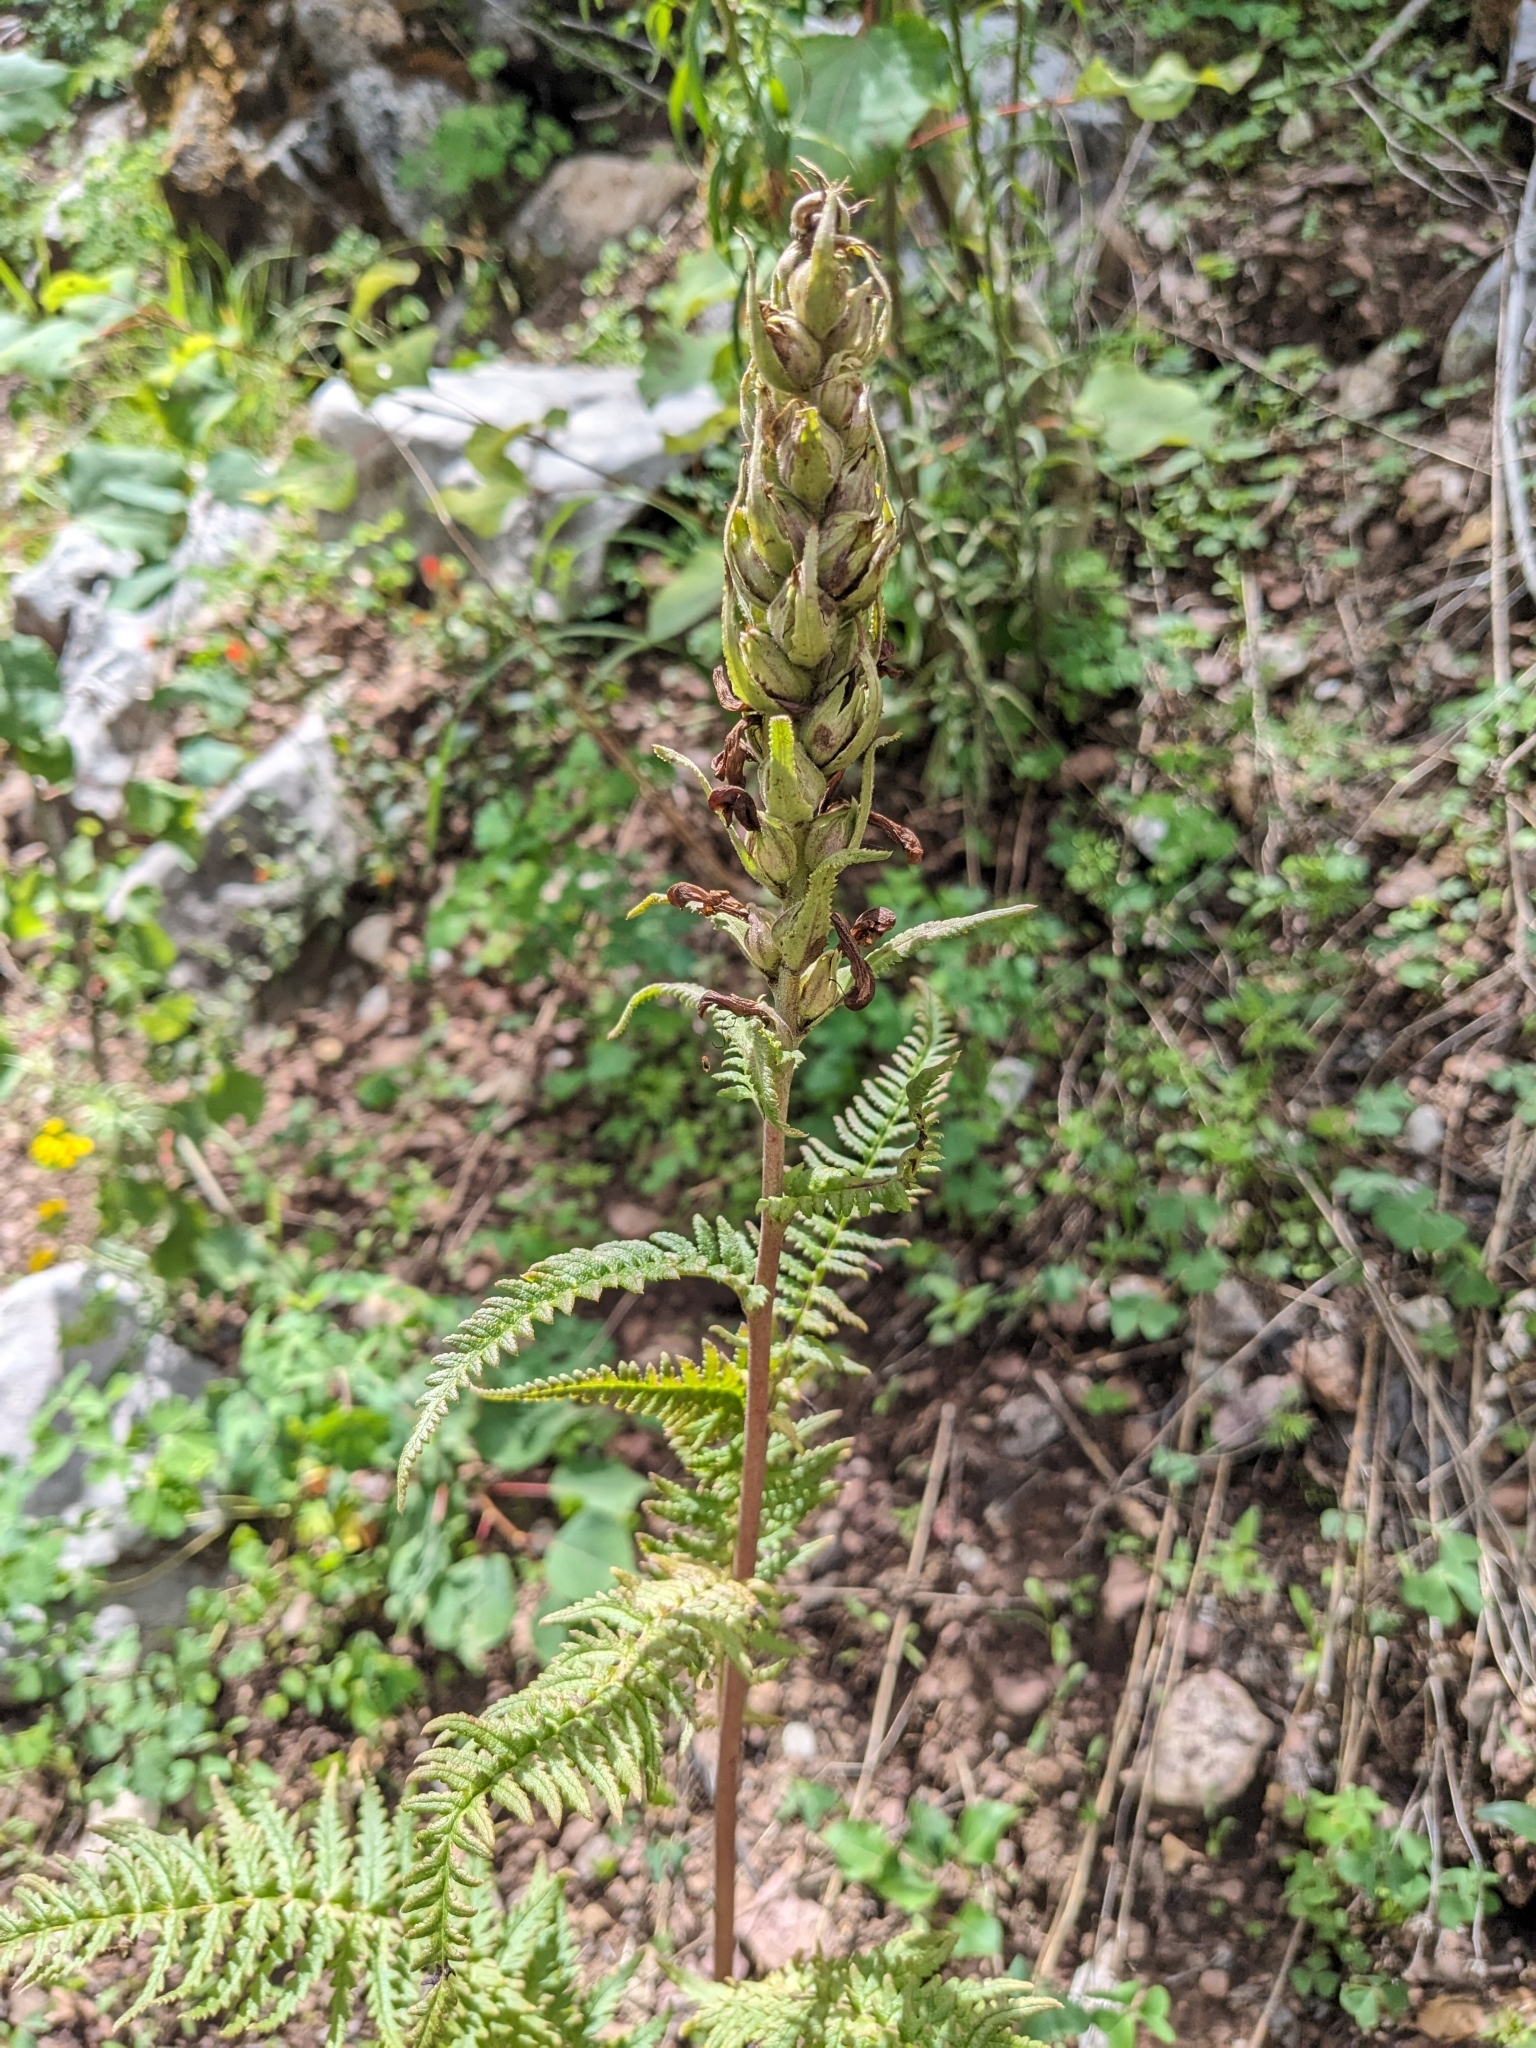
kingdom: Plantae
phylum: Tracheophyta
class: Magnoliopsida
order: Lamiales
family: Orobanchaceae
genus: Pedicularis
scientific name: Pedicularis procera
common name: Gray's lousewort
